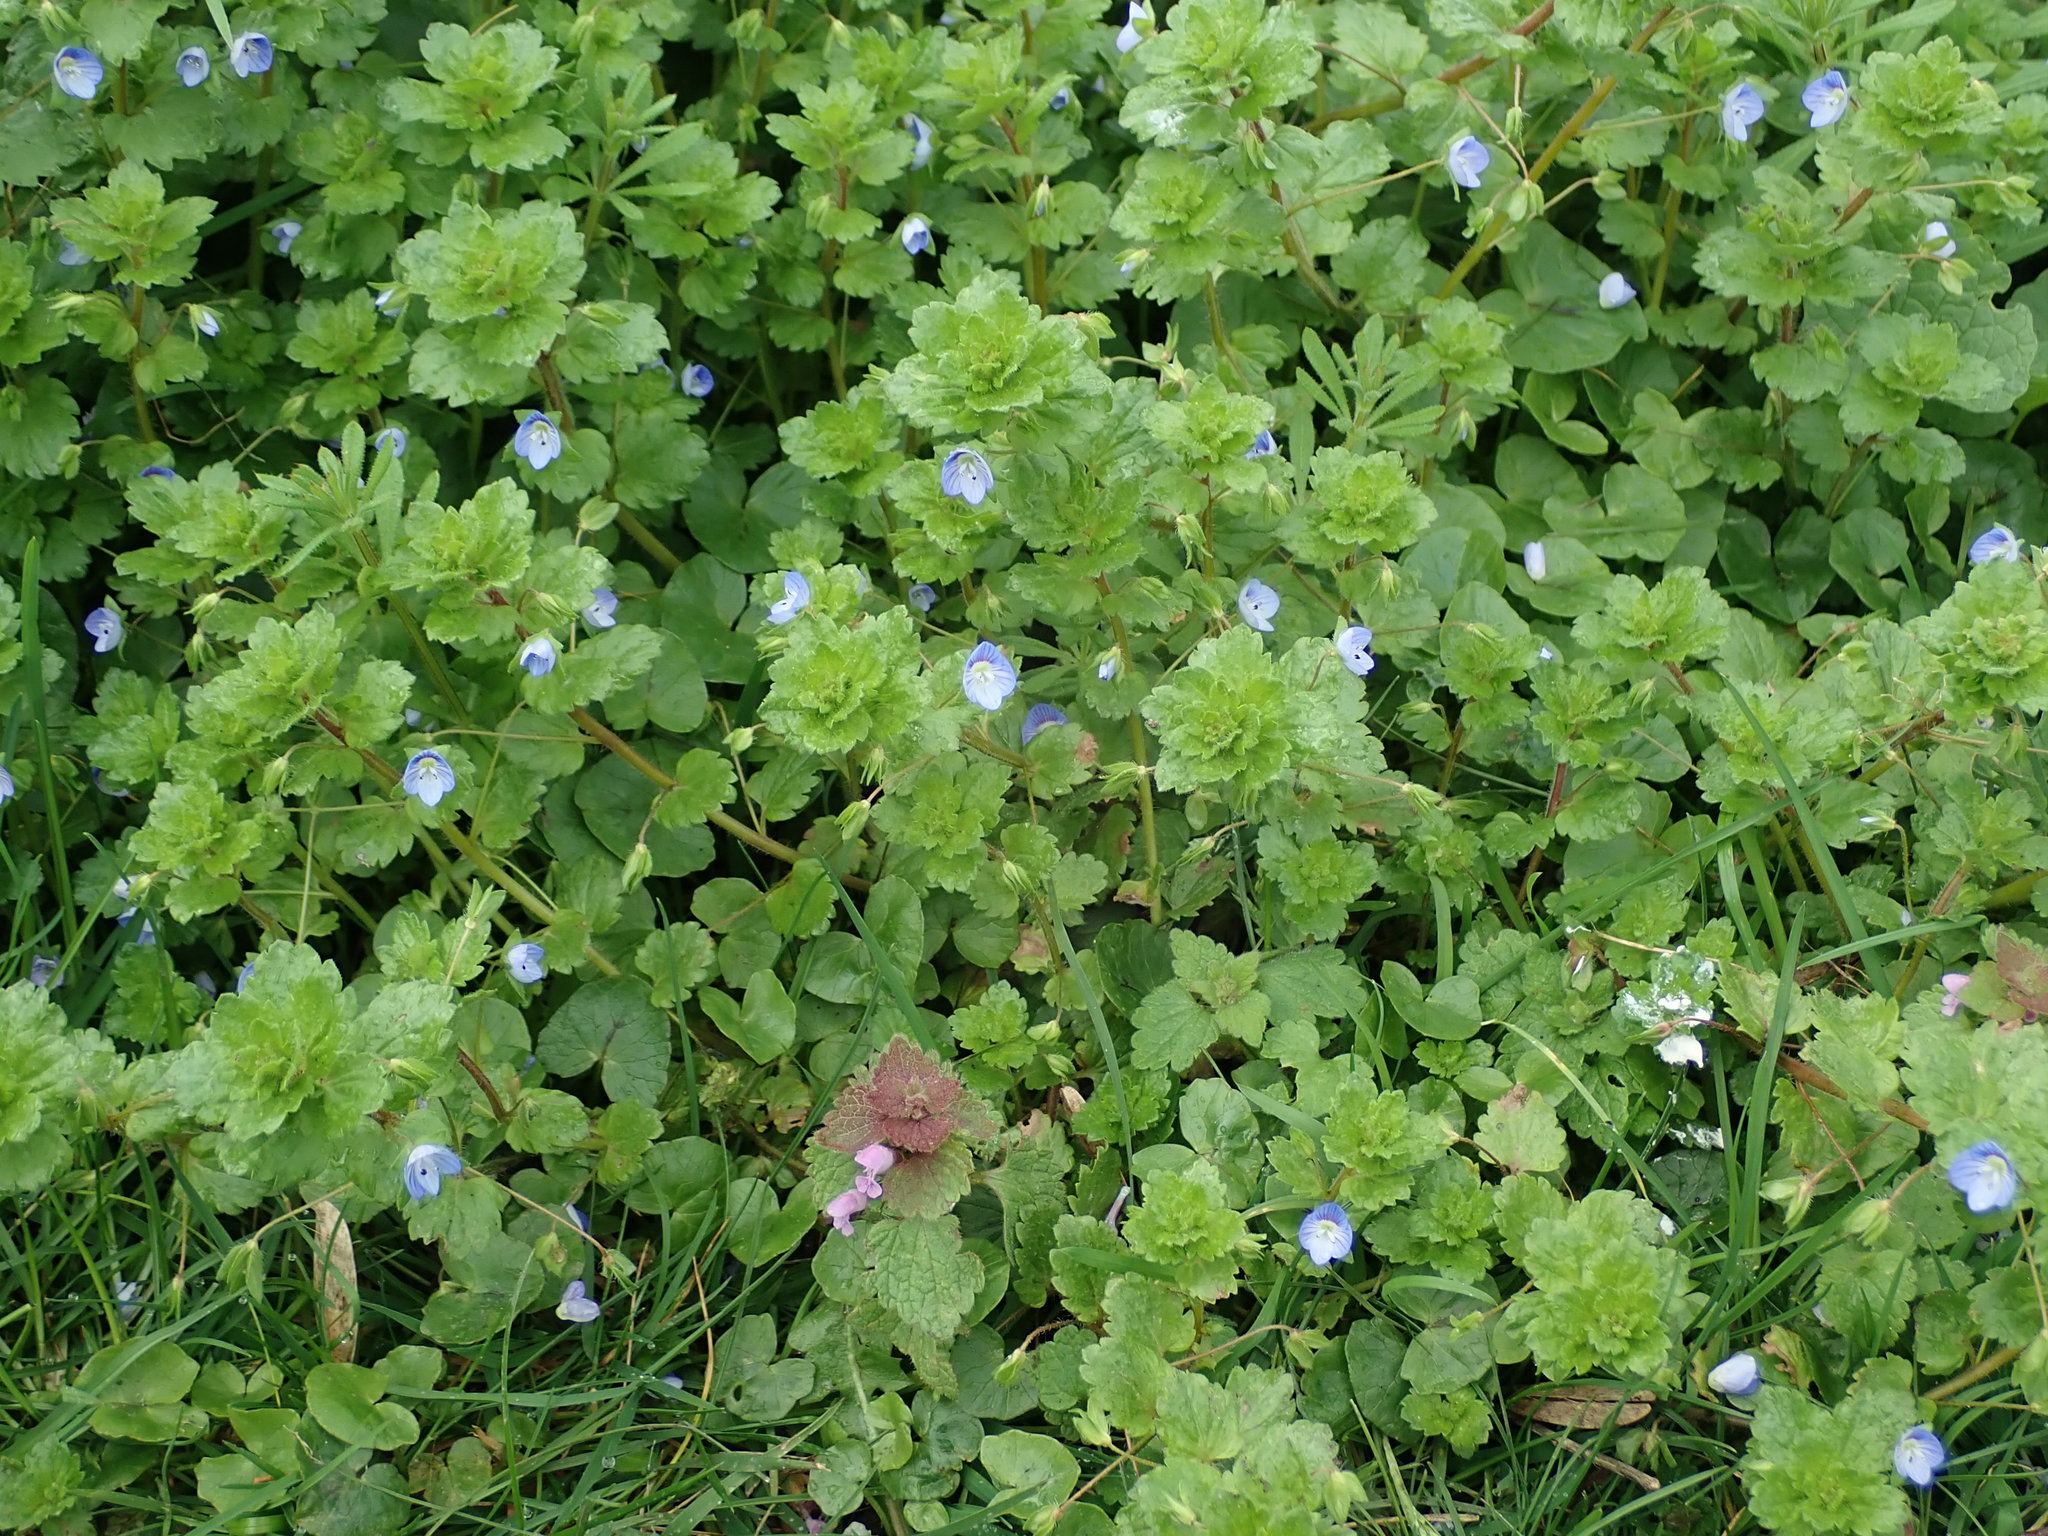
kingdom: Plantae
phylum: Tracheophyta
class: Magnoliopsida
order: Lamiales
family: Plantaginaceae
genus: Veronica
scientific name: Veronica persica
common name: Common field-speedwell
